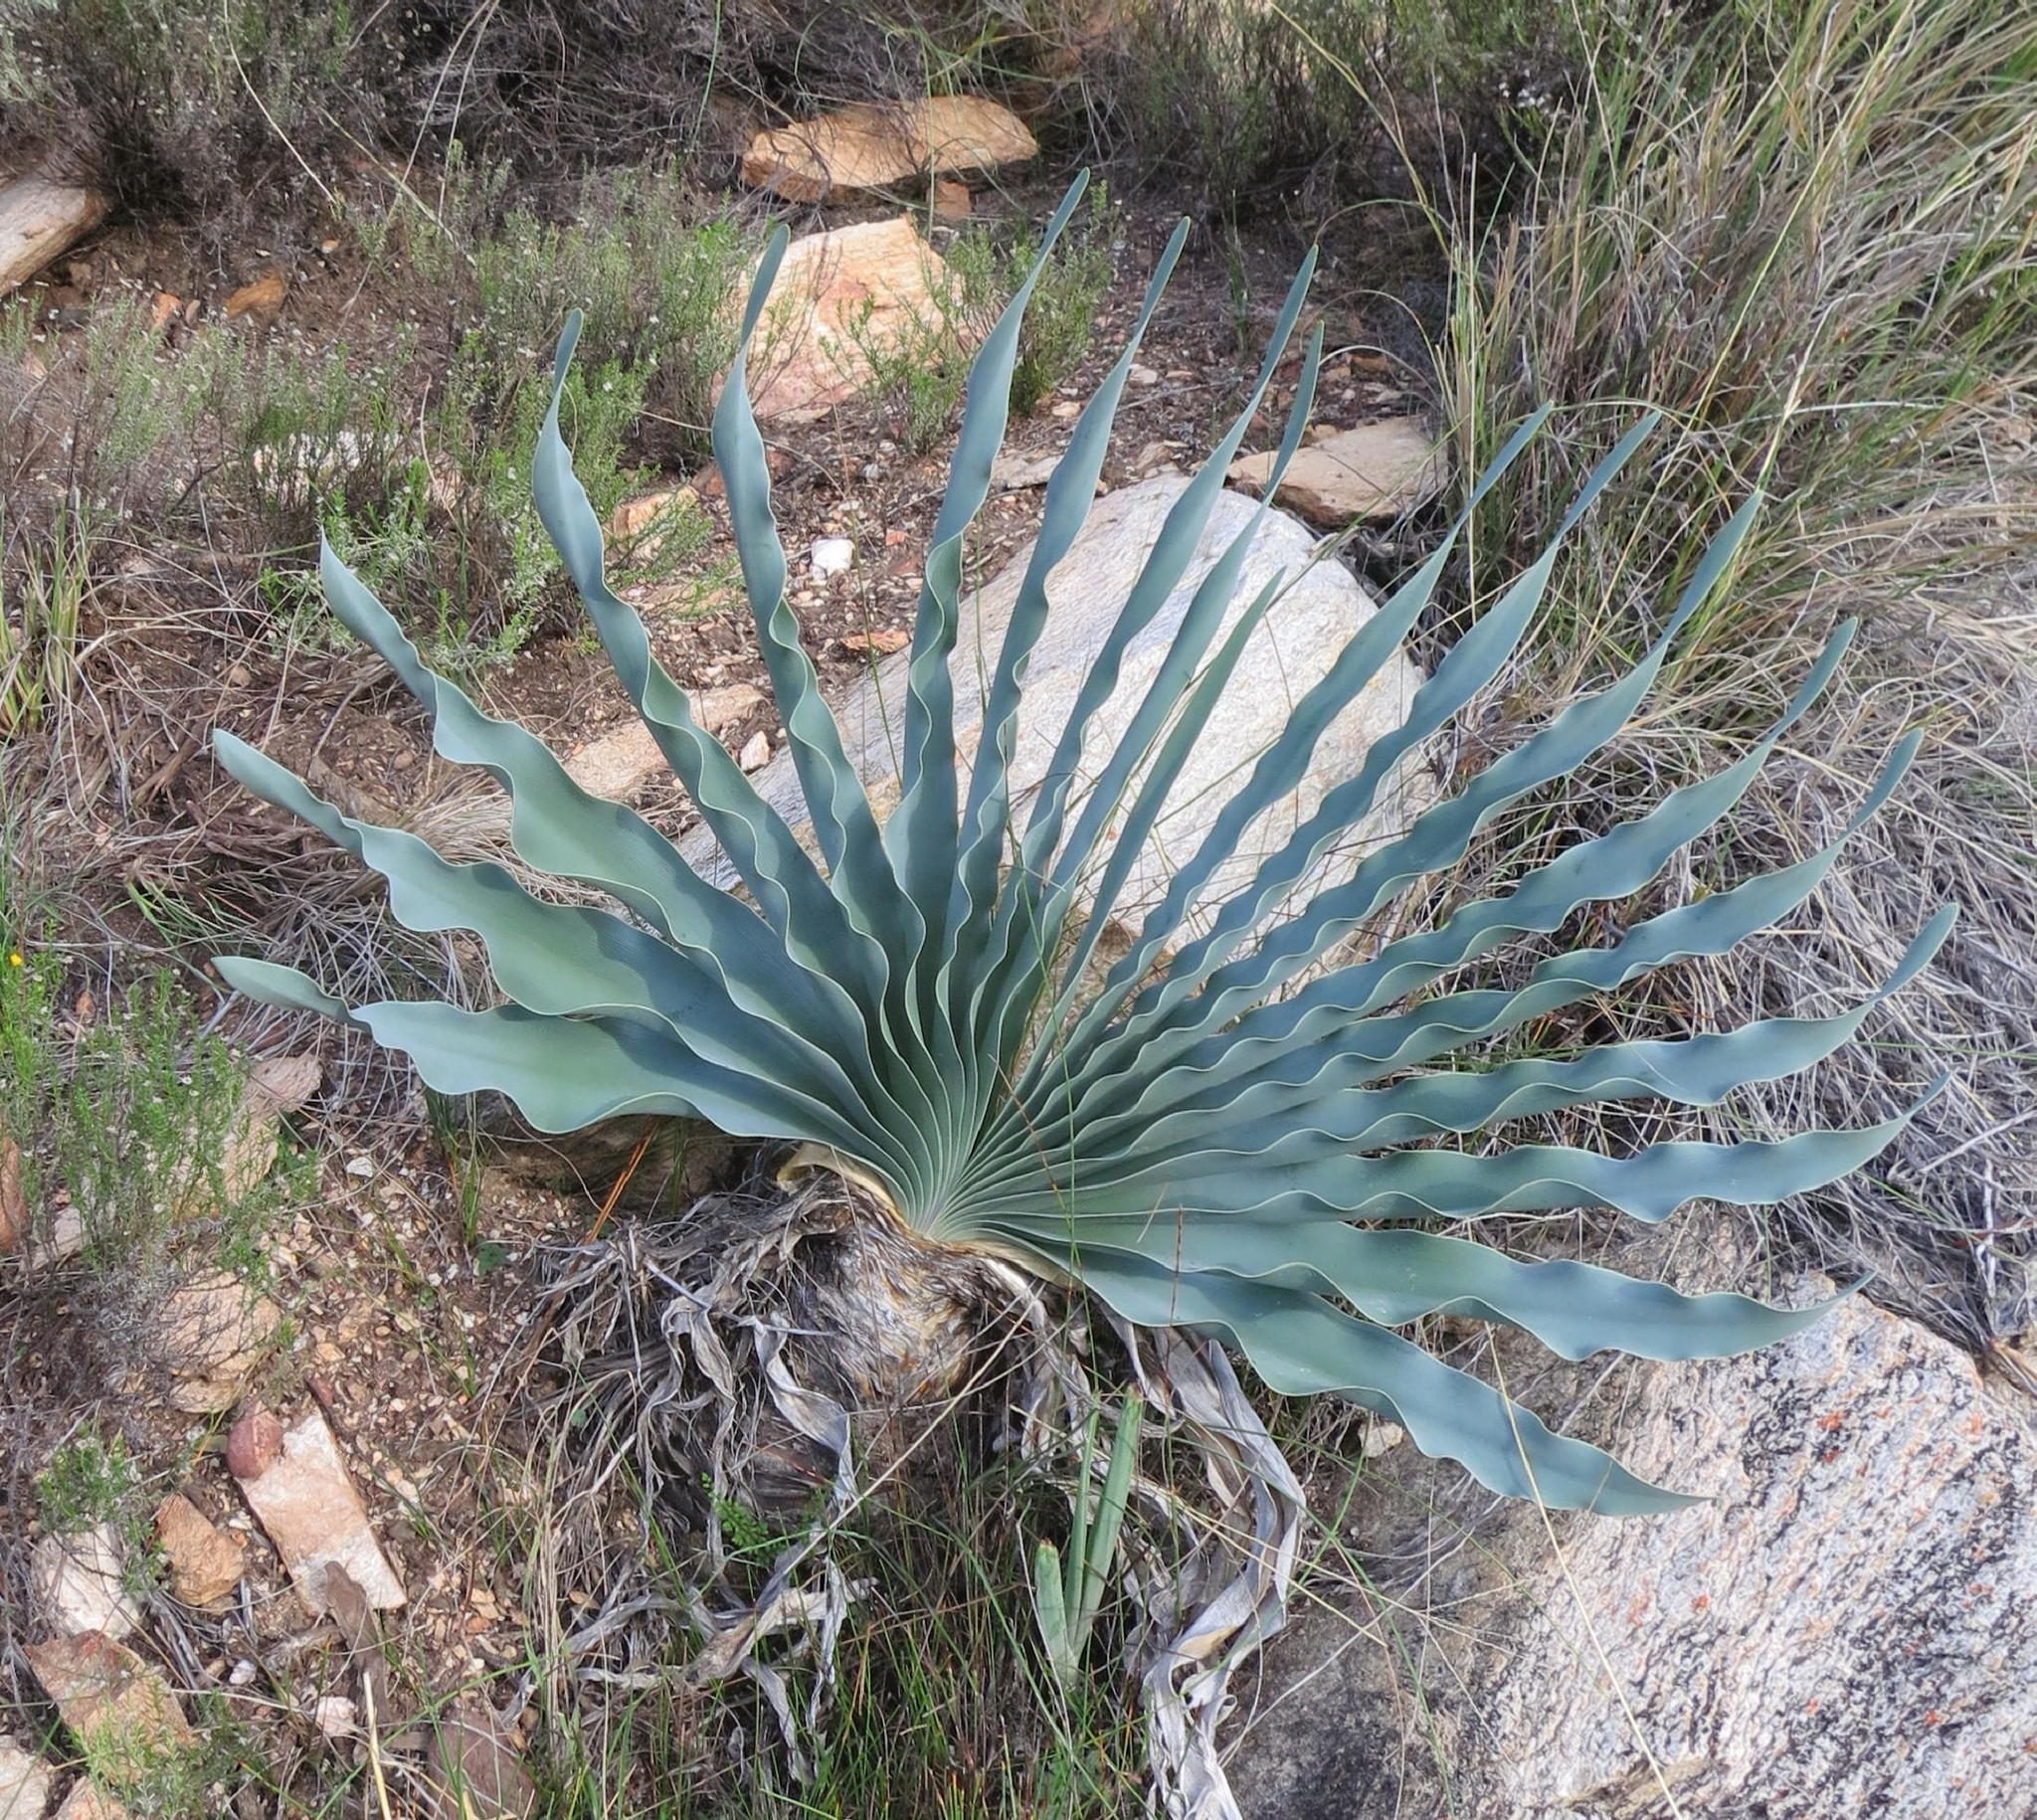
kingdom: Plantae
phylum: Tracheophyta
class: Liliopsida
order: Asparagales
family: Amaryllidaceae
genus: Boophone
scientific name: Boophone disticha
